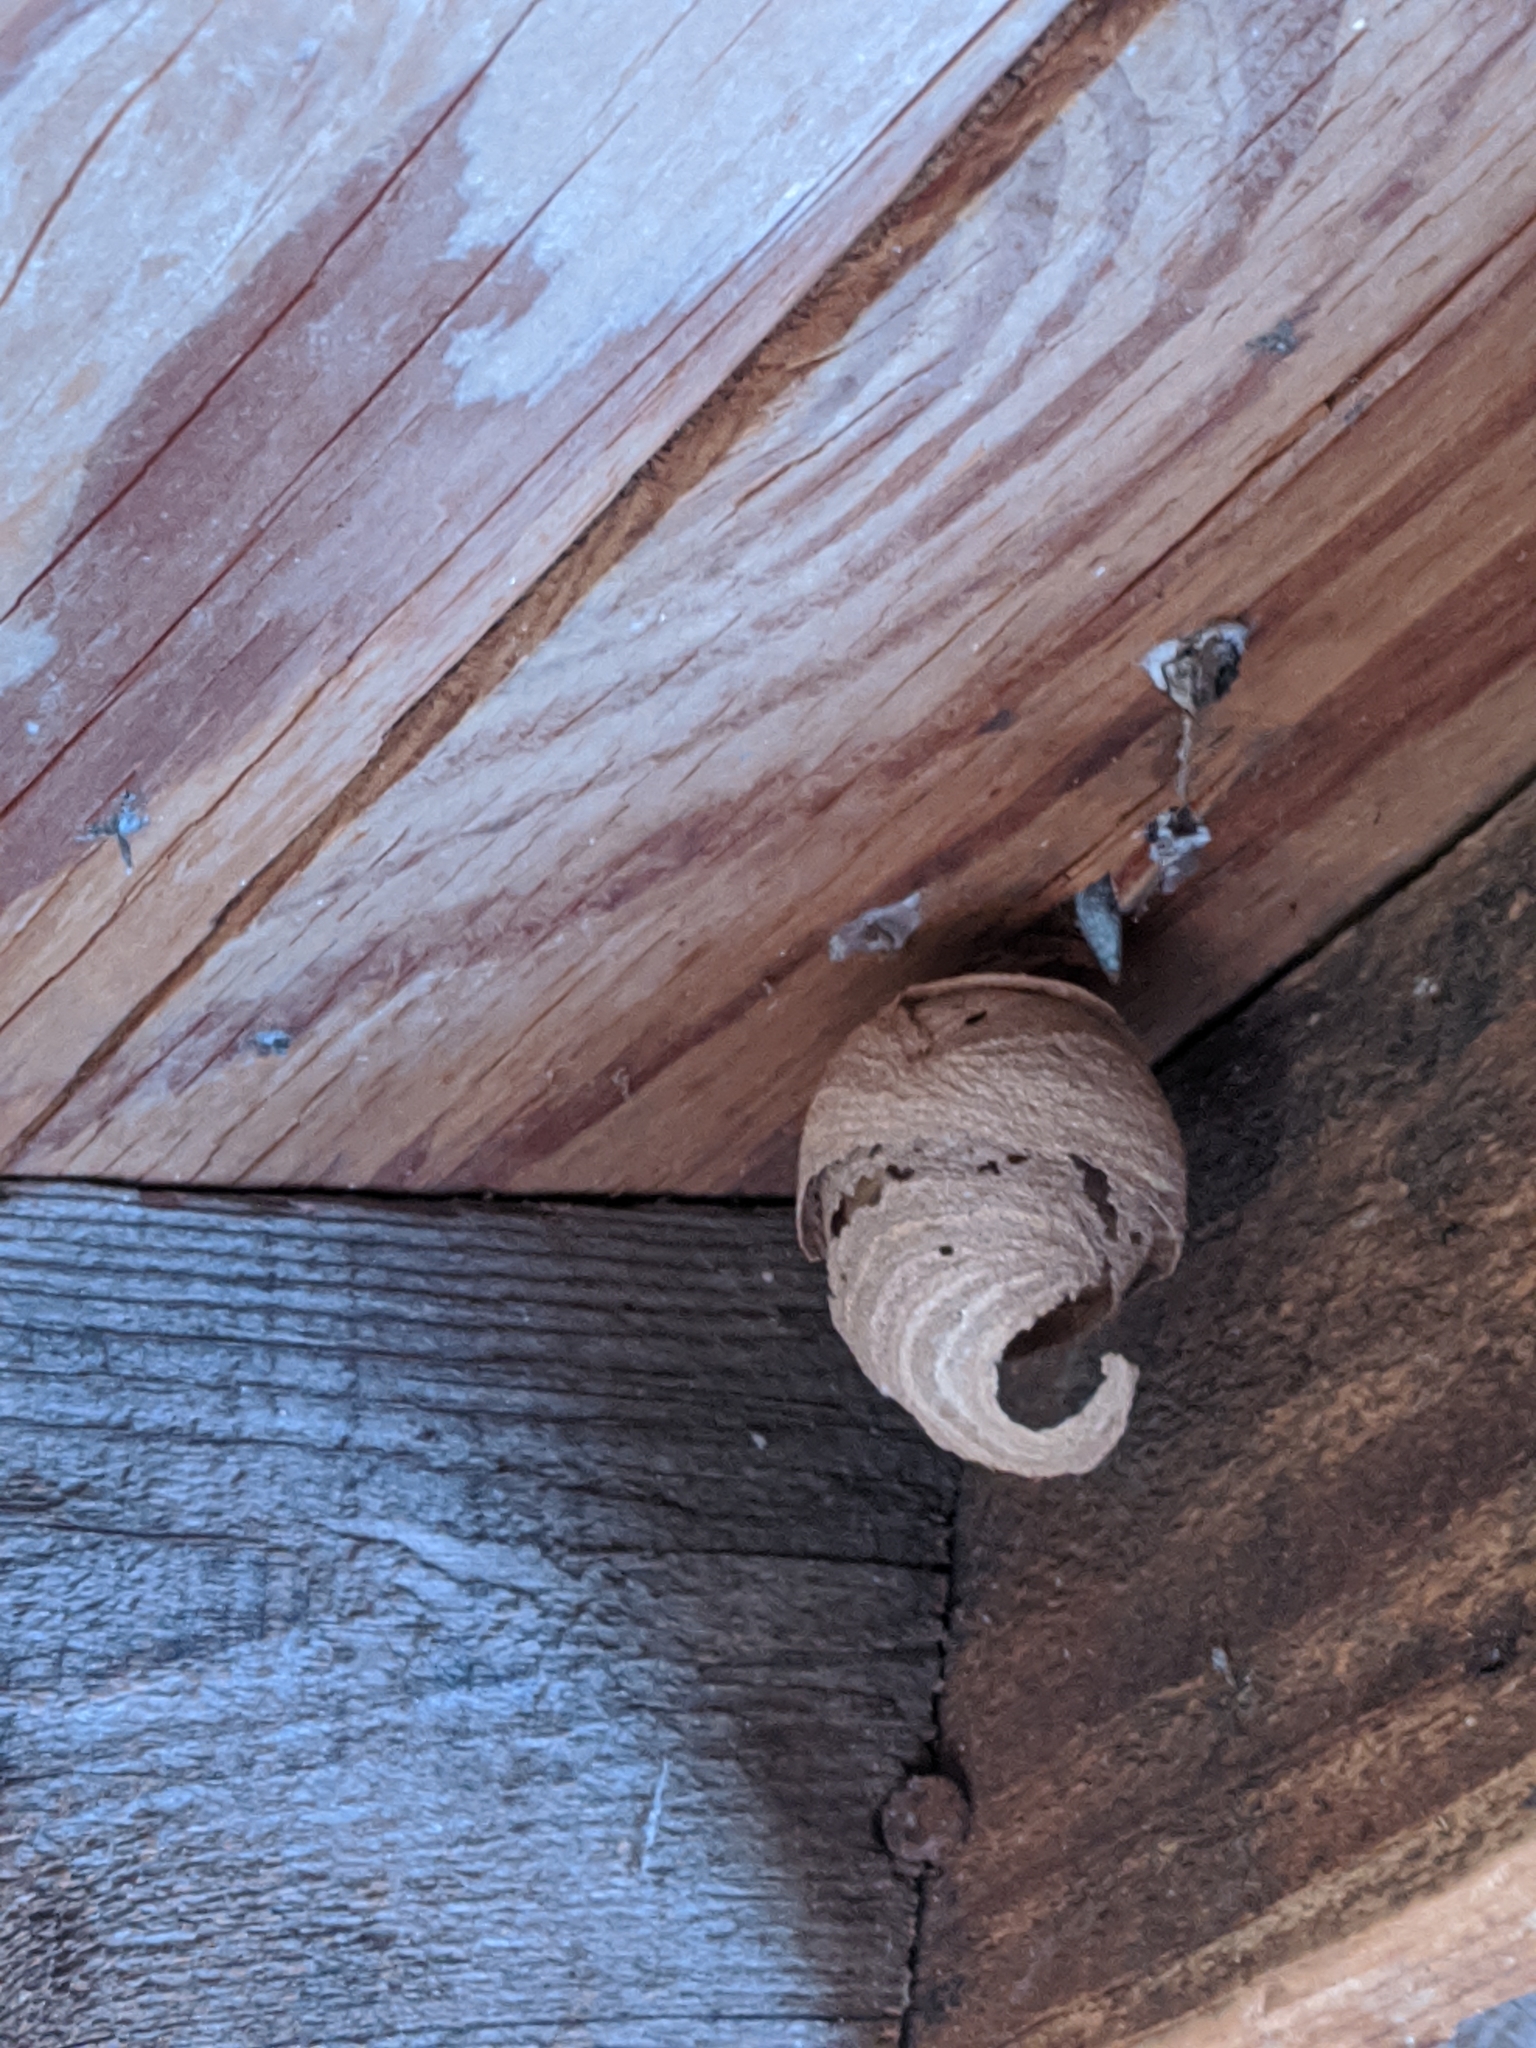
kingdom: Animalia
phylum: Arthropoda
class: Insecta
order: Hymenoptera
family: Vespidae
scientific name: Vespidae
